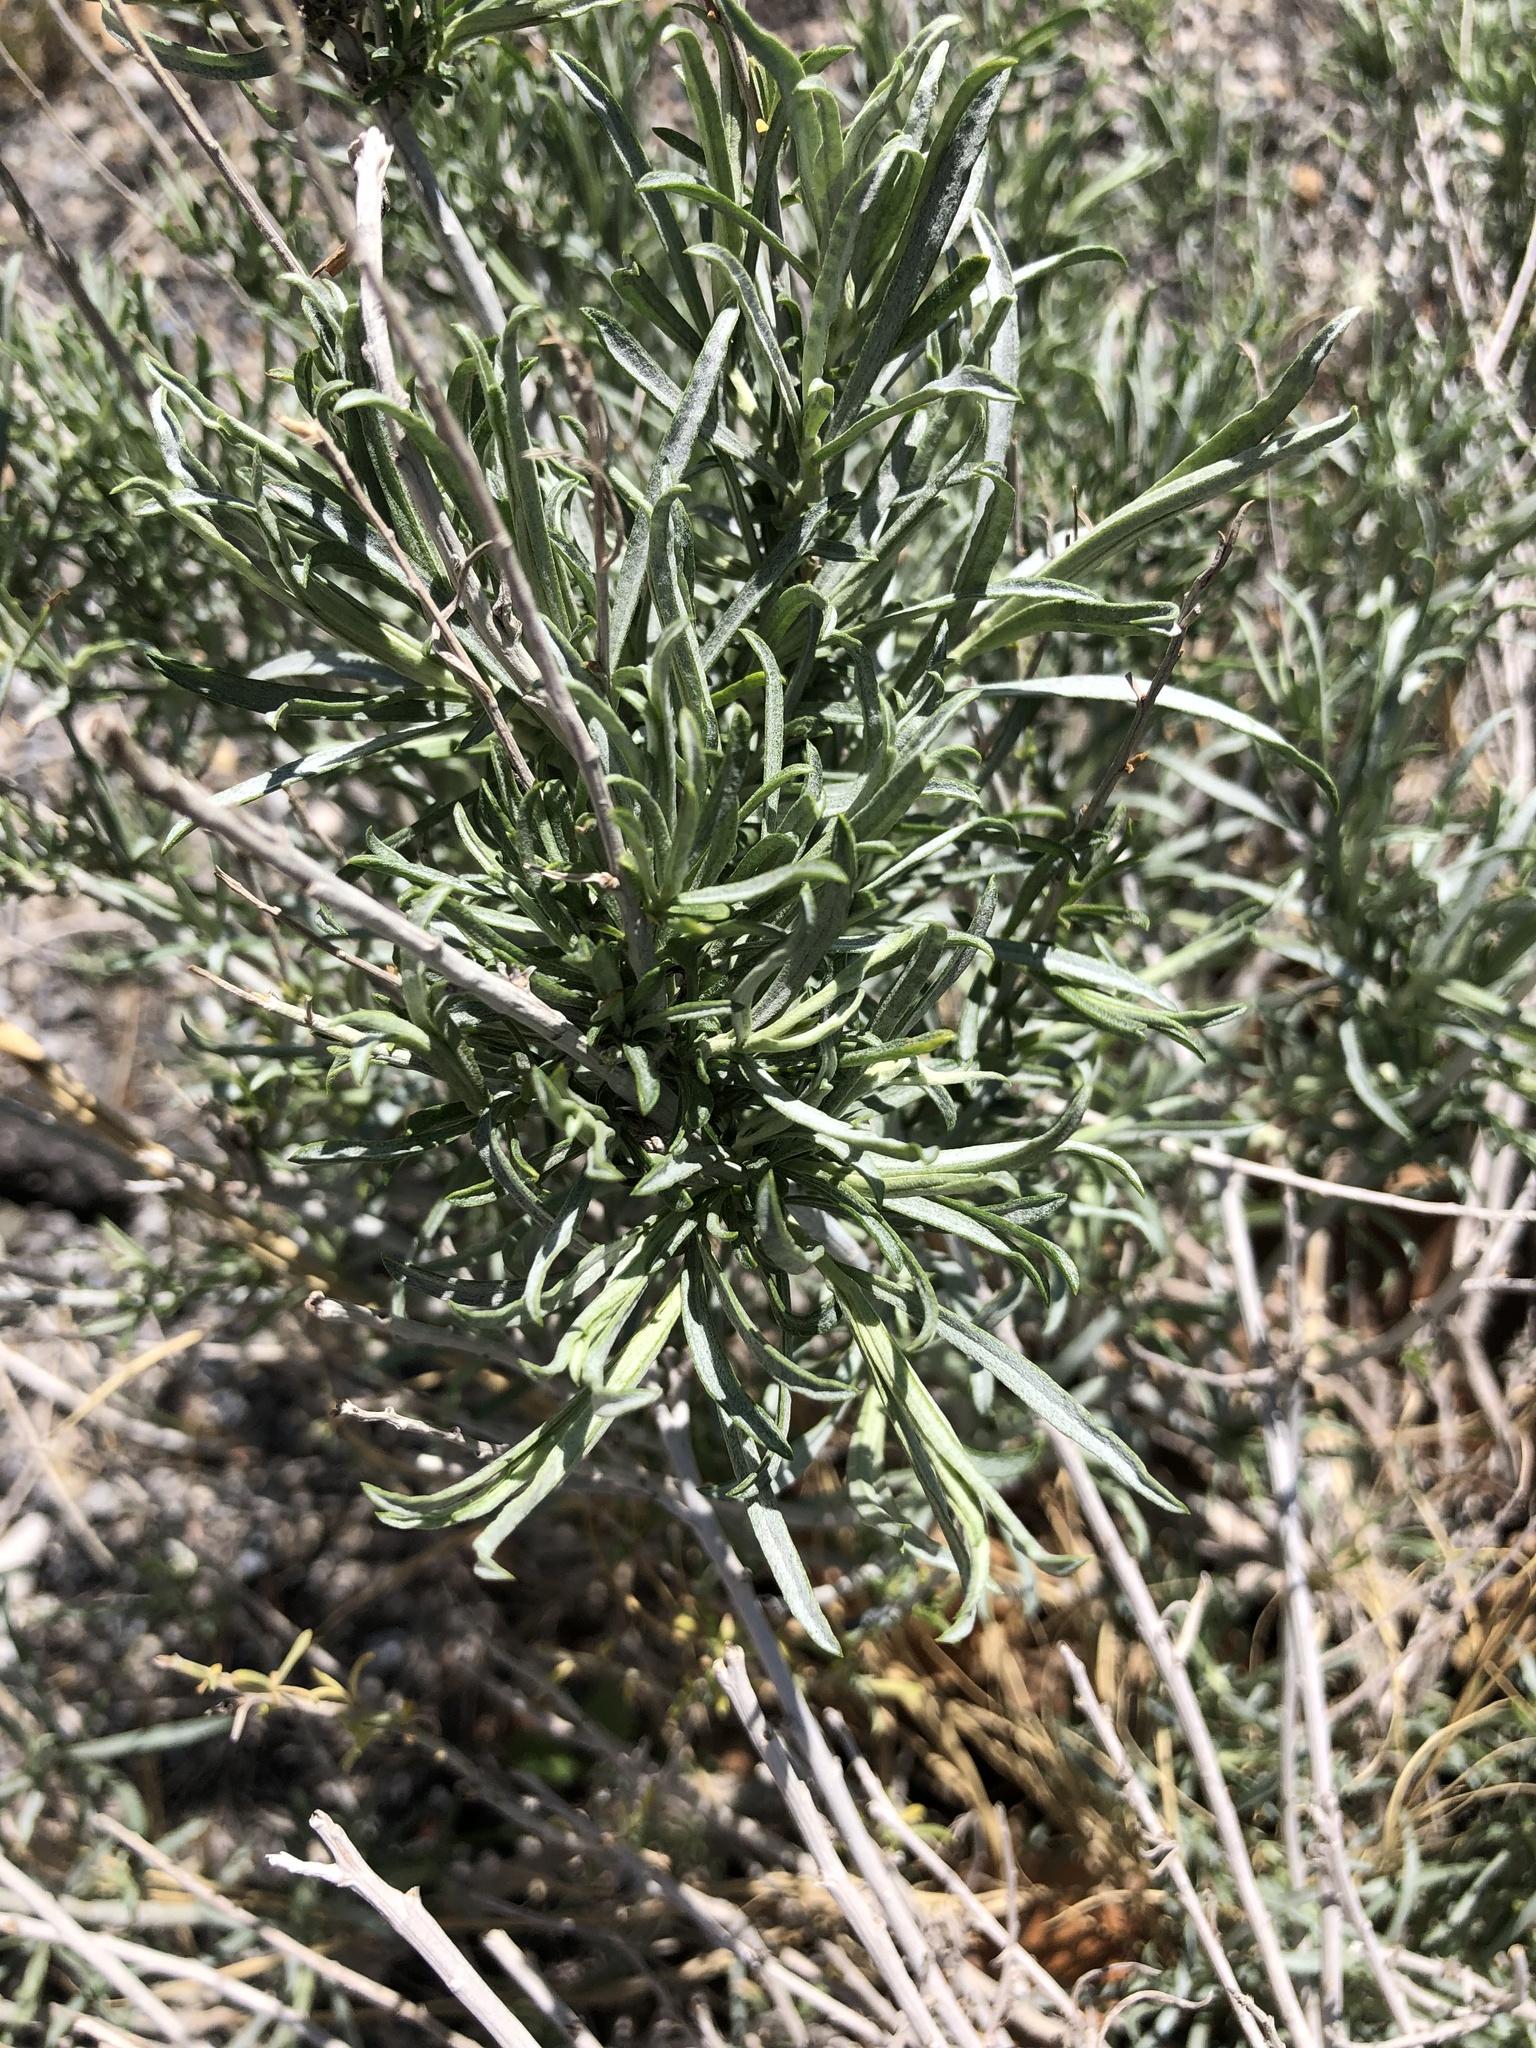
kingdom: Plantae
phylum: Tracheophyta
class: Magnoliopsida
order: Asterales
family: Asteraceae
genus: Ericameria
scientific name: Ericameria nauseosa
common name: Rubber rabbitbrush
